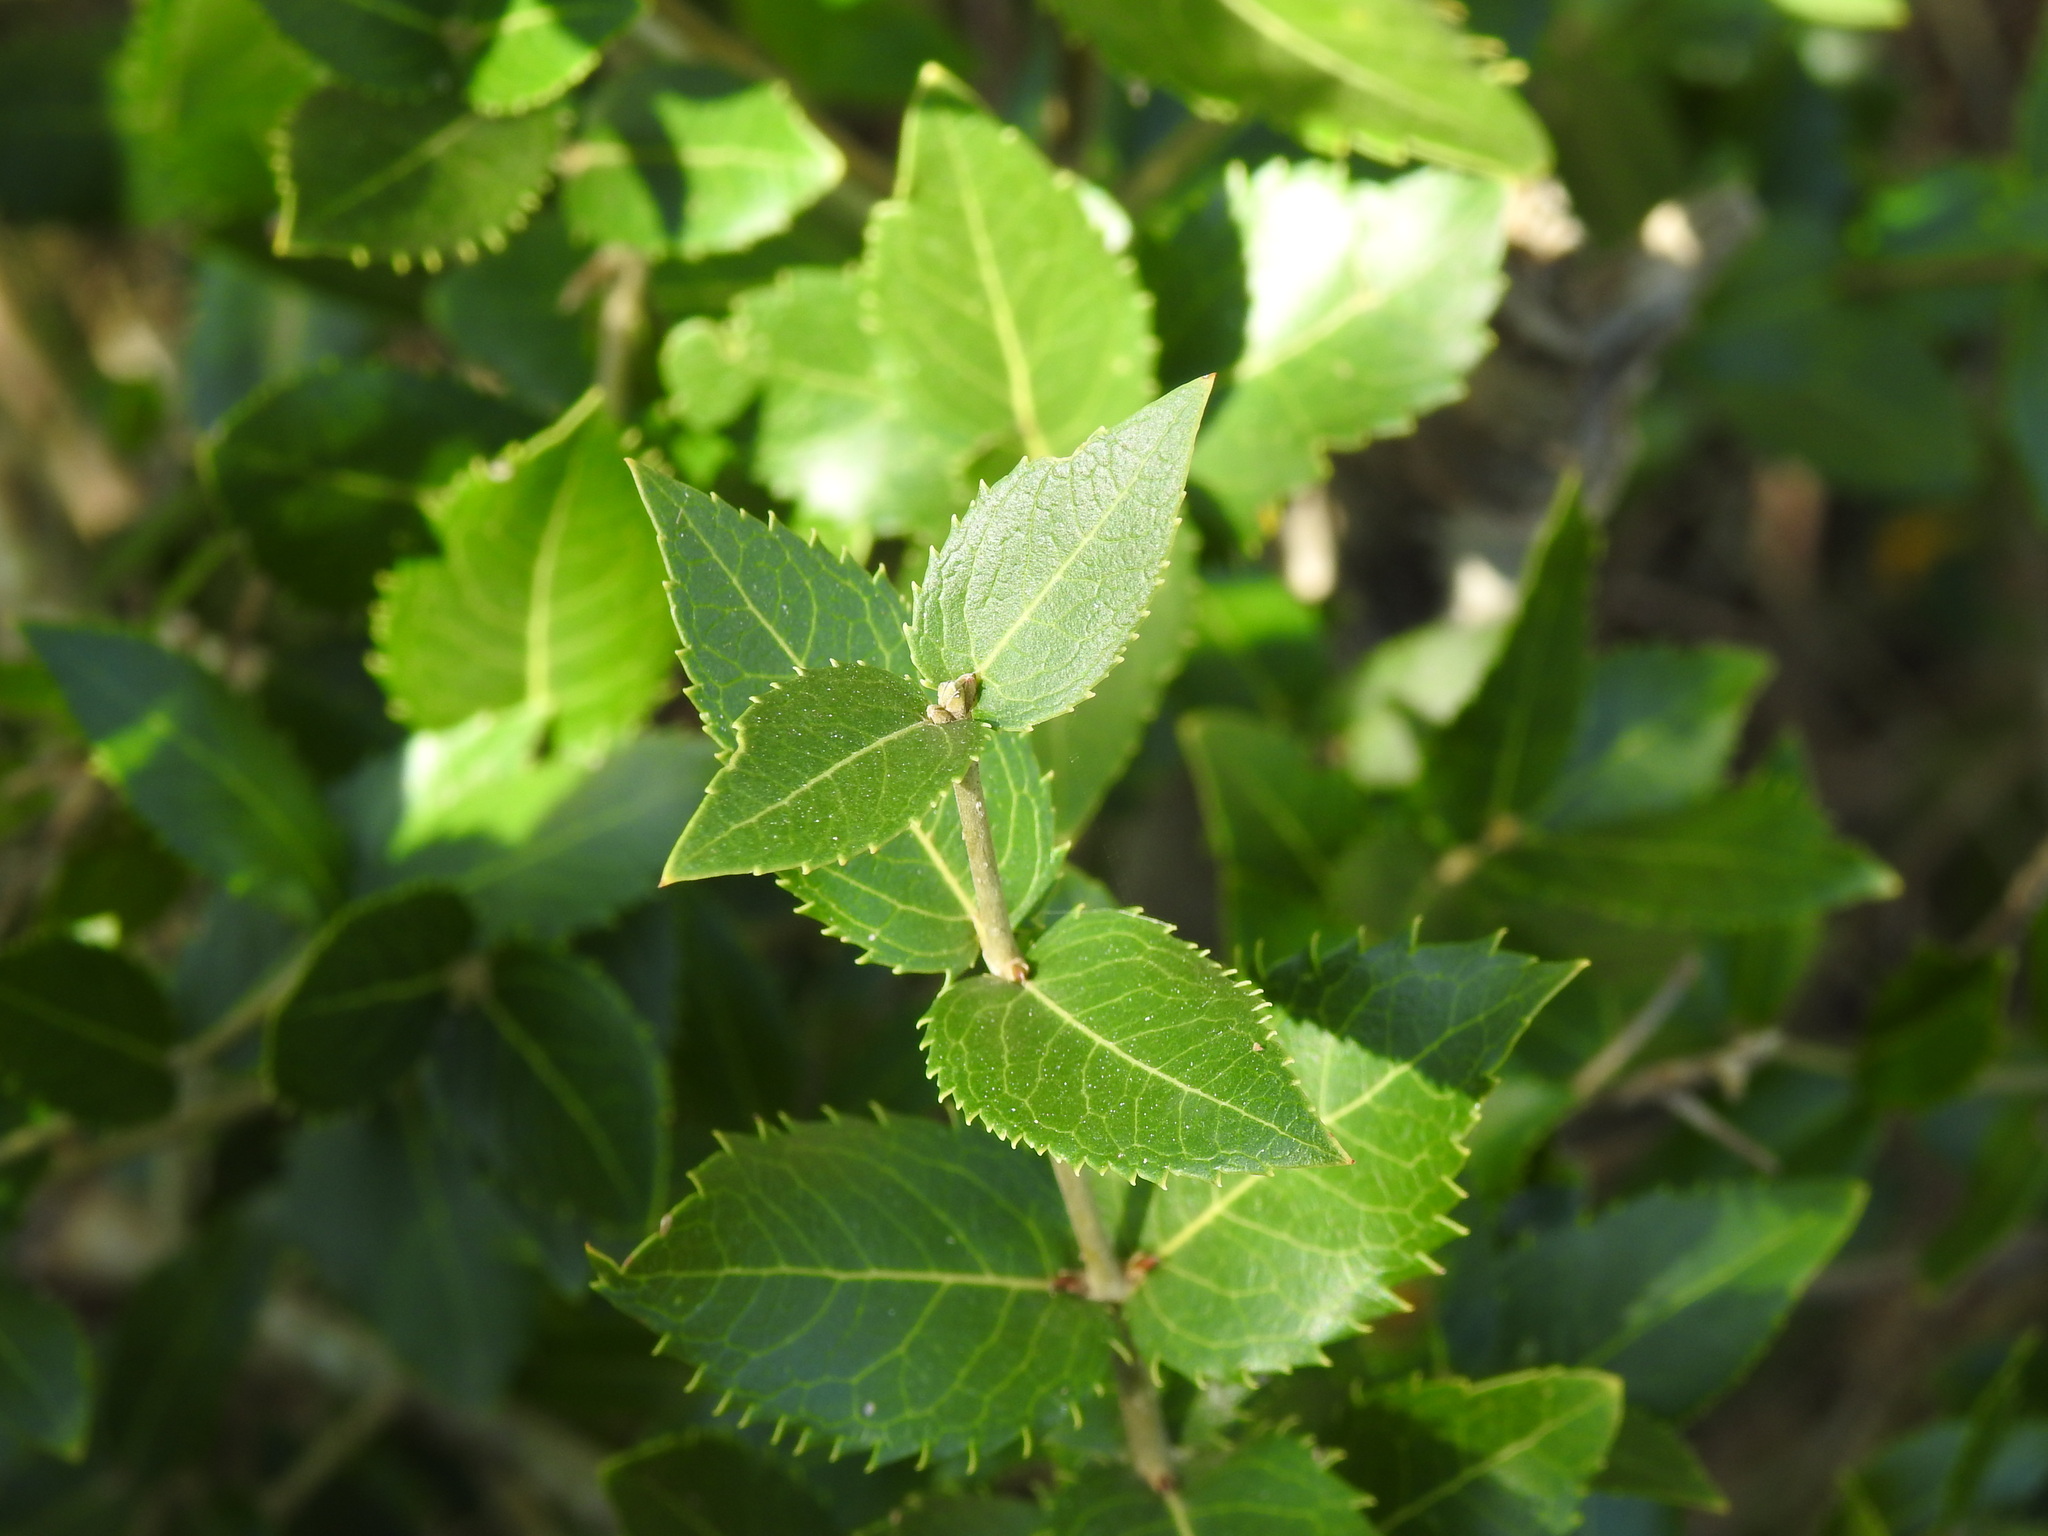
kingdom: Plantae
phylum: Tracheophyta
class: Magnoliopsida
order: Lamiales
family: Oleaceae
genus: Phillyrea
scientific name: Phillyrea latifolia
